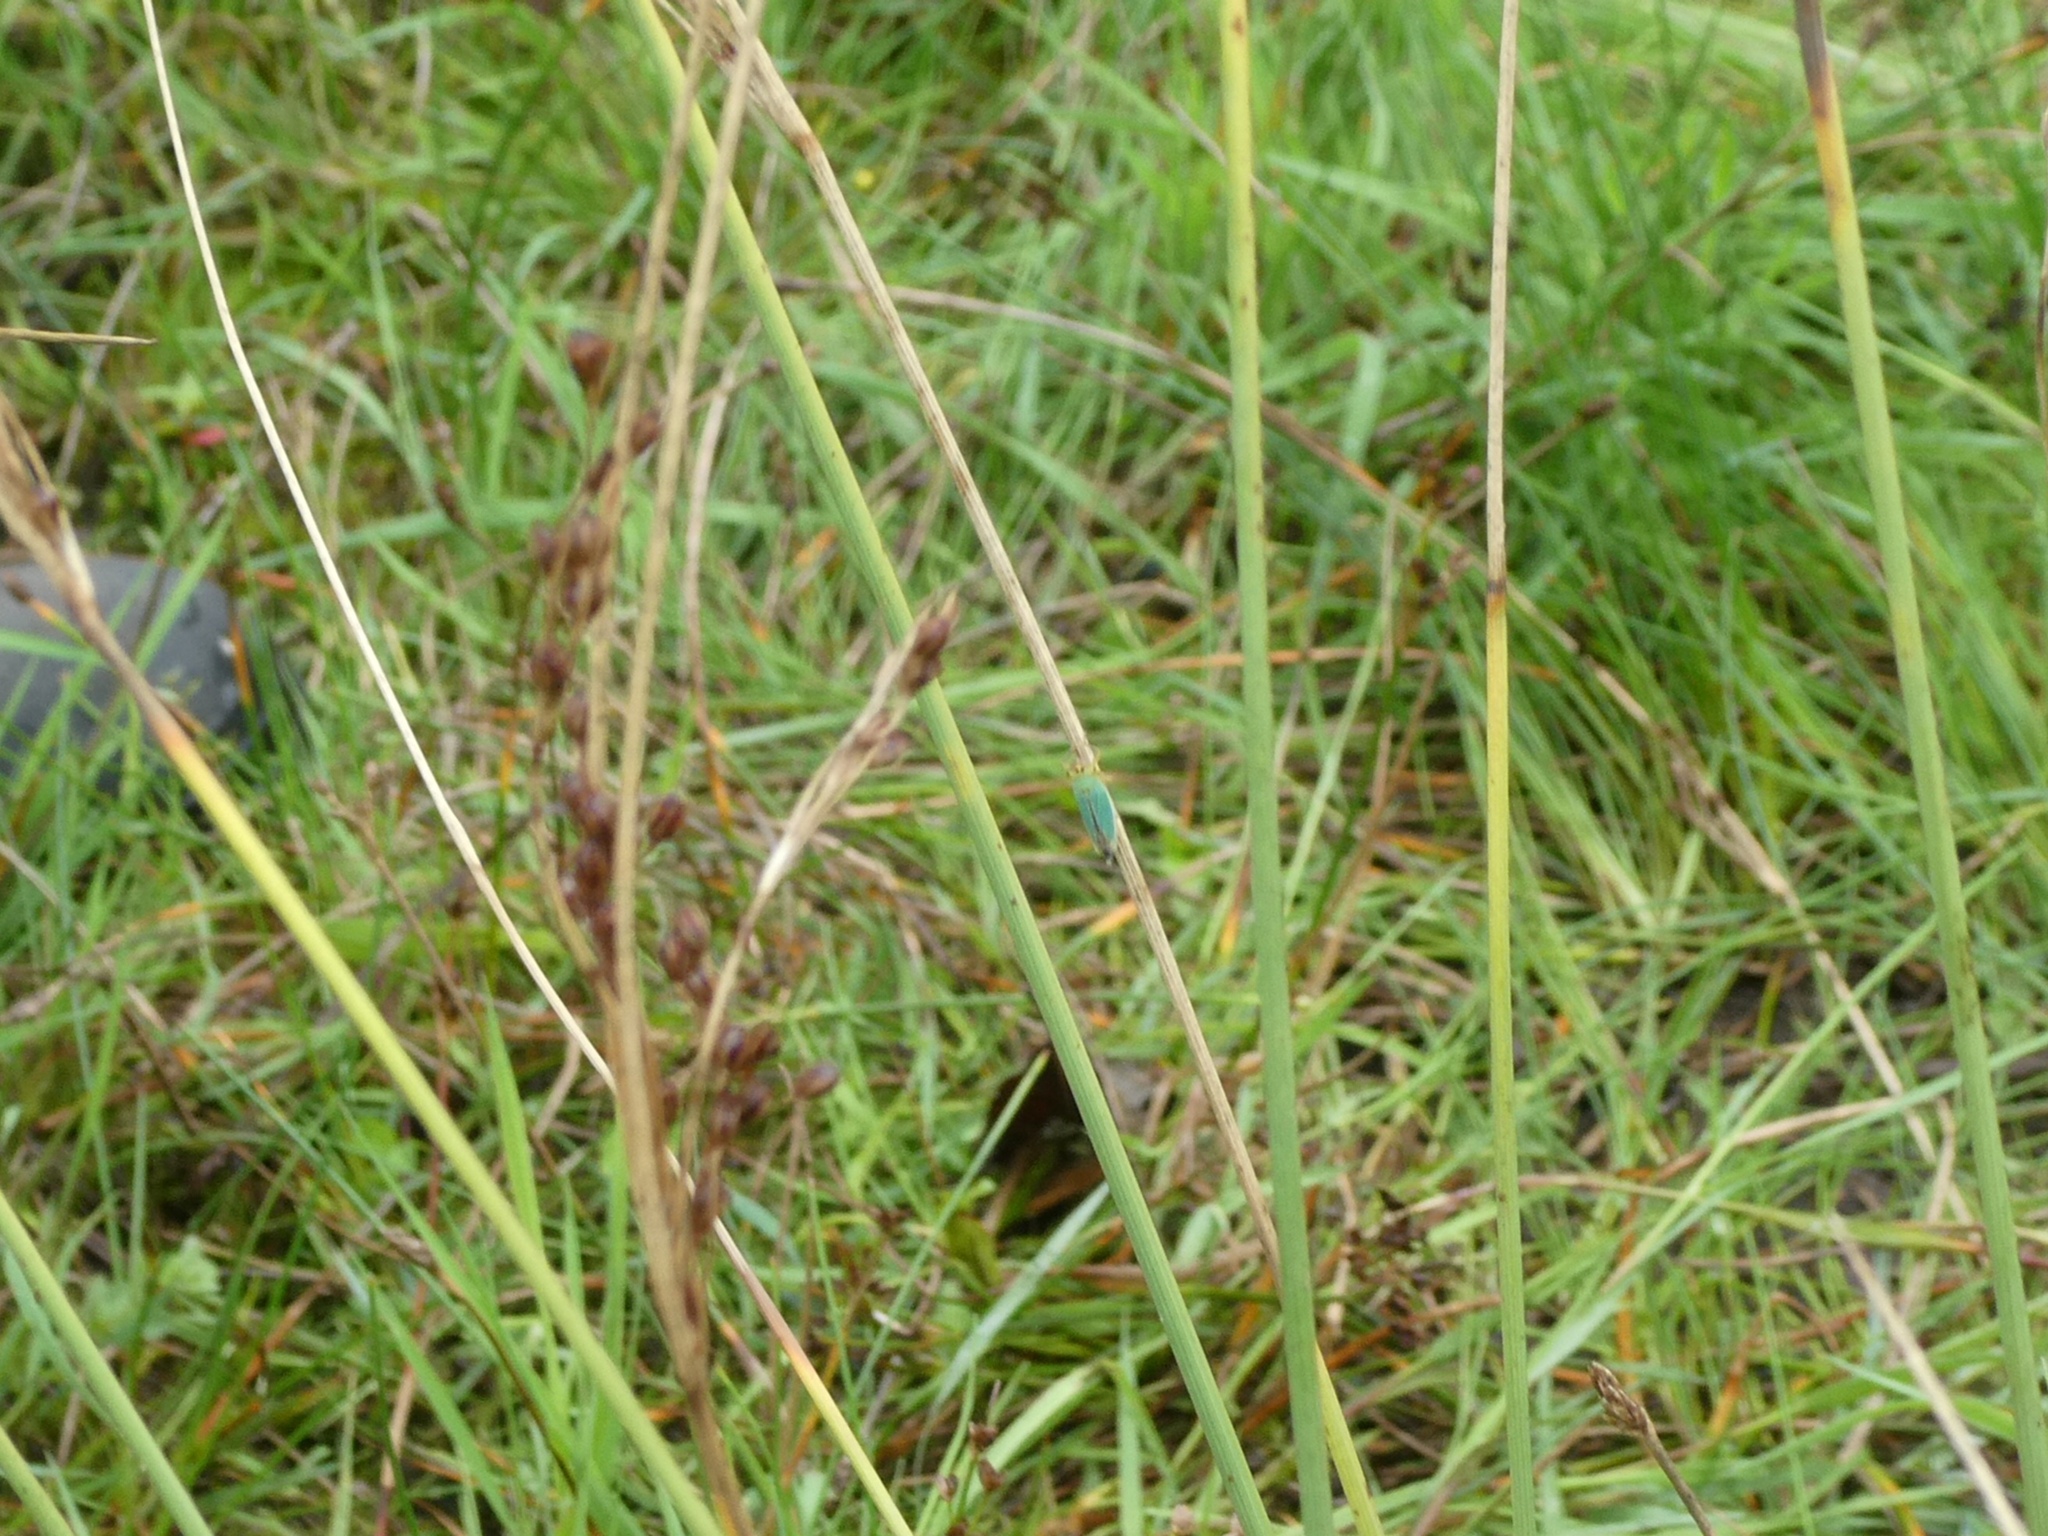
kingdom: Animalia
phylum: Arthropoda
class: Insecta
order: Hemiptera
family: Cicadellidae
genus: Cicadella
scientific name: Cicadella viridis
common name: Leafhopper
